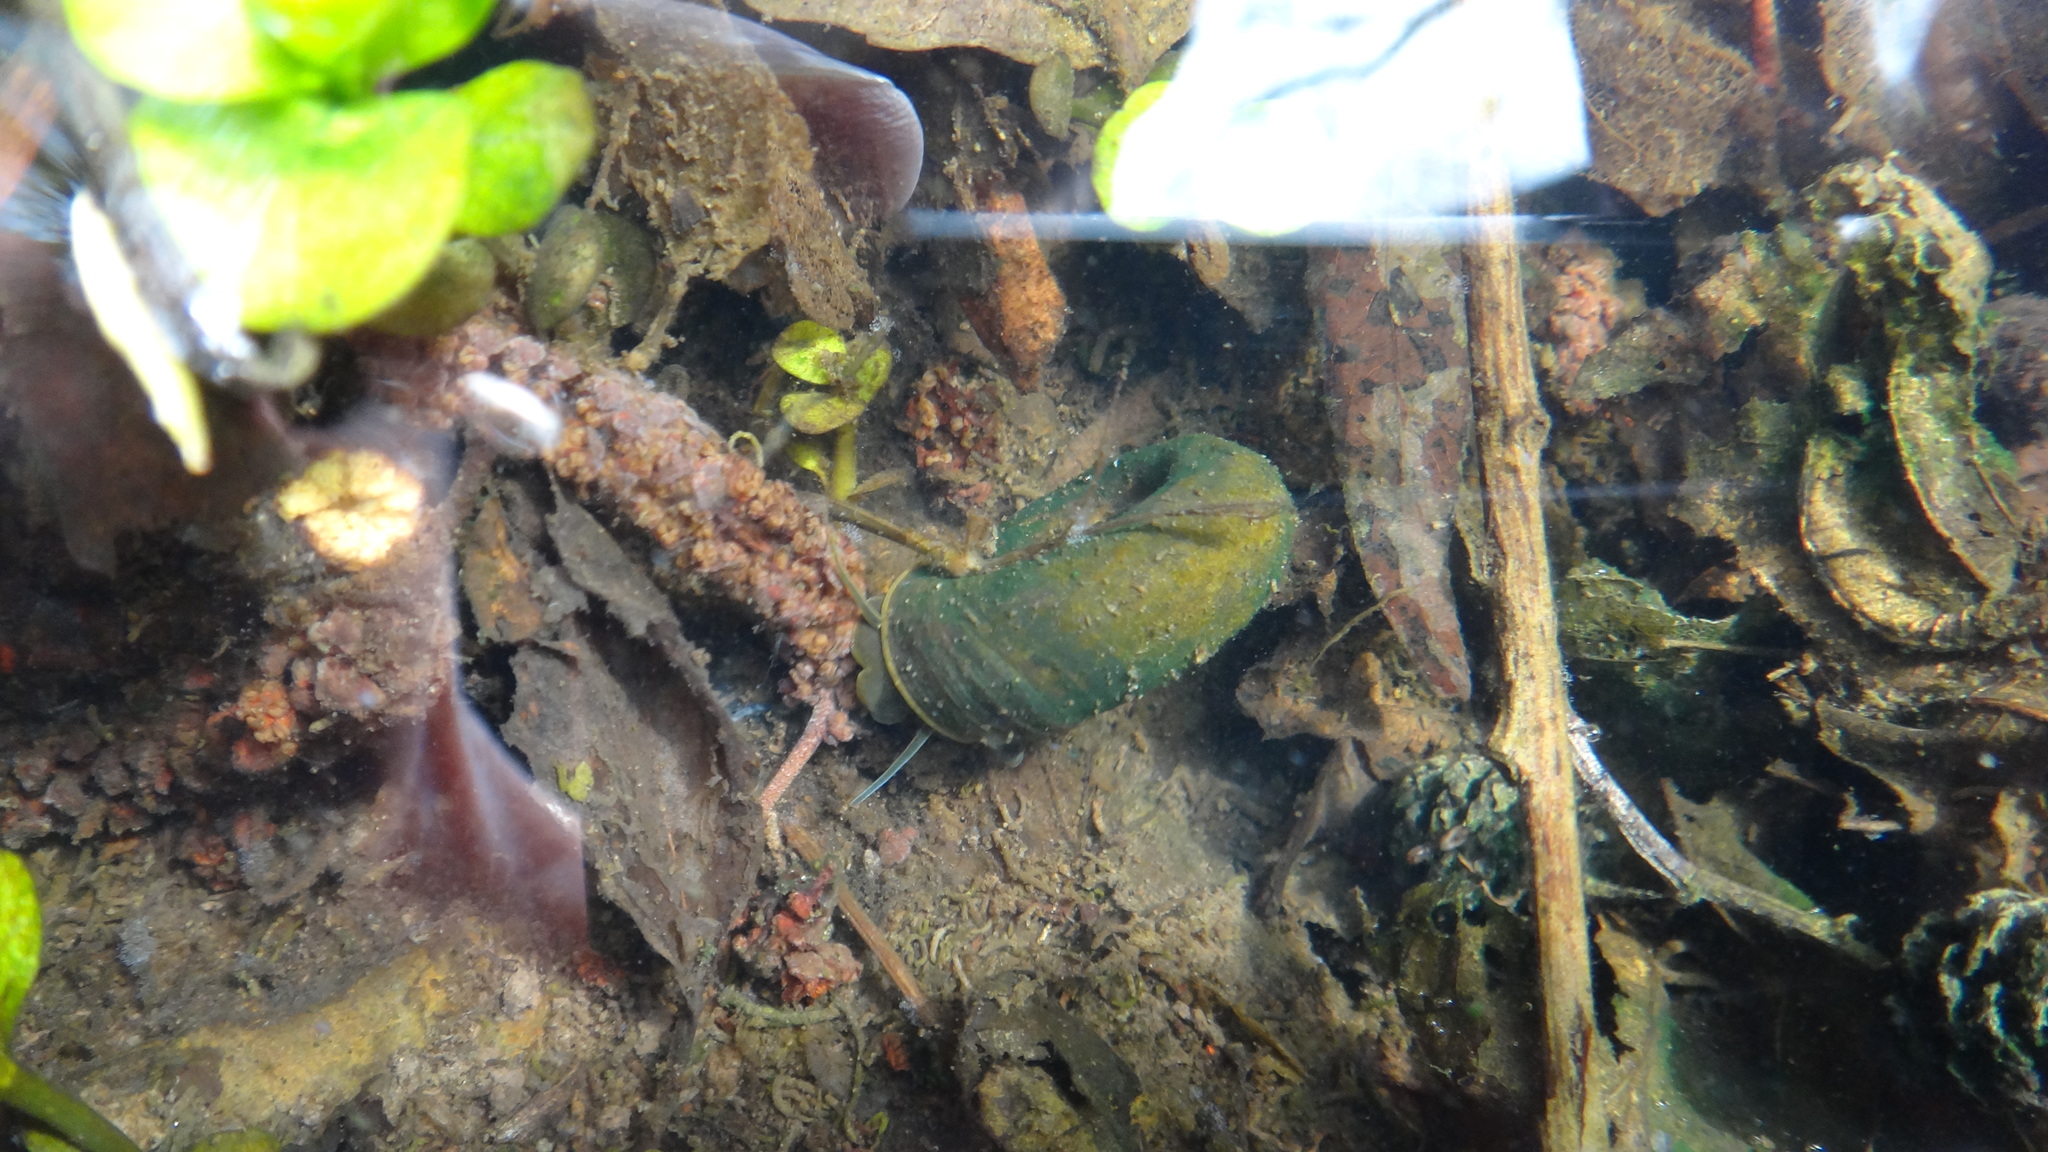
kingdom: Animalia
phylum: Mollusca
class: Gastropoda
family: Planorbidae
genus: Planorbarius
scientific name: Planorbarius corneus
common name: Great ramshorn
